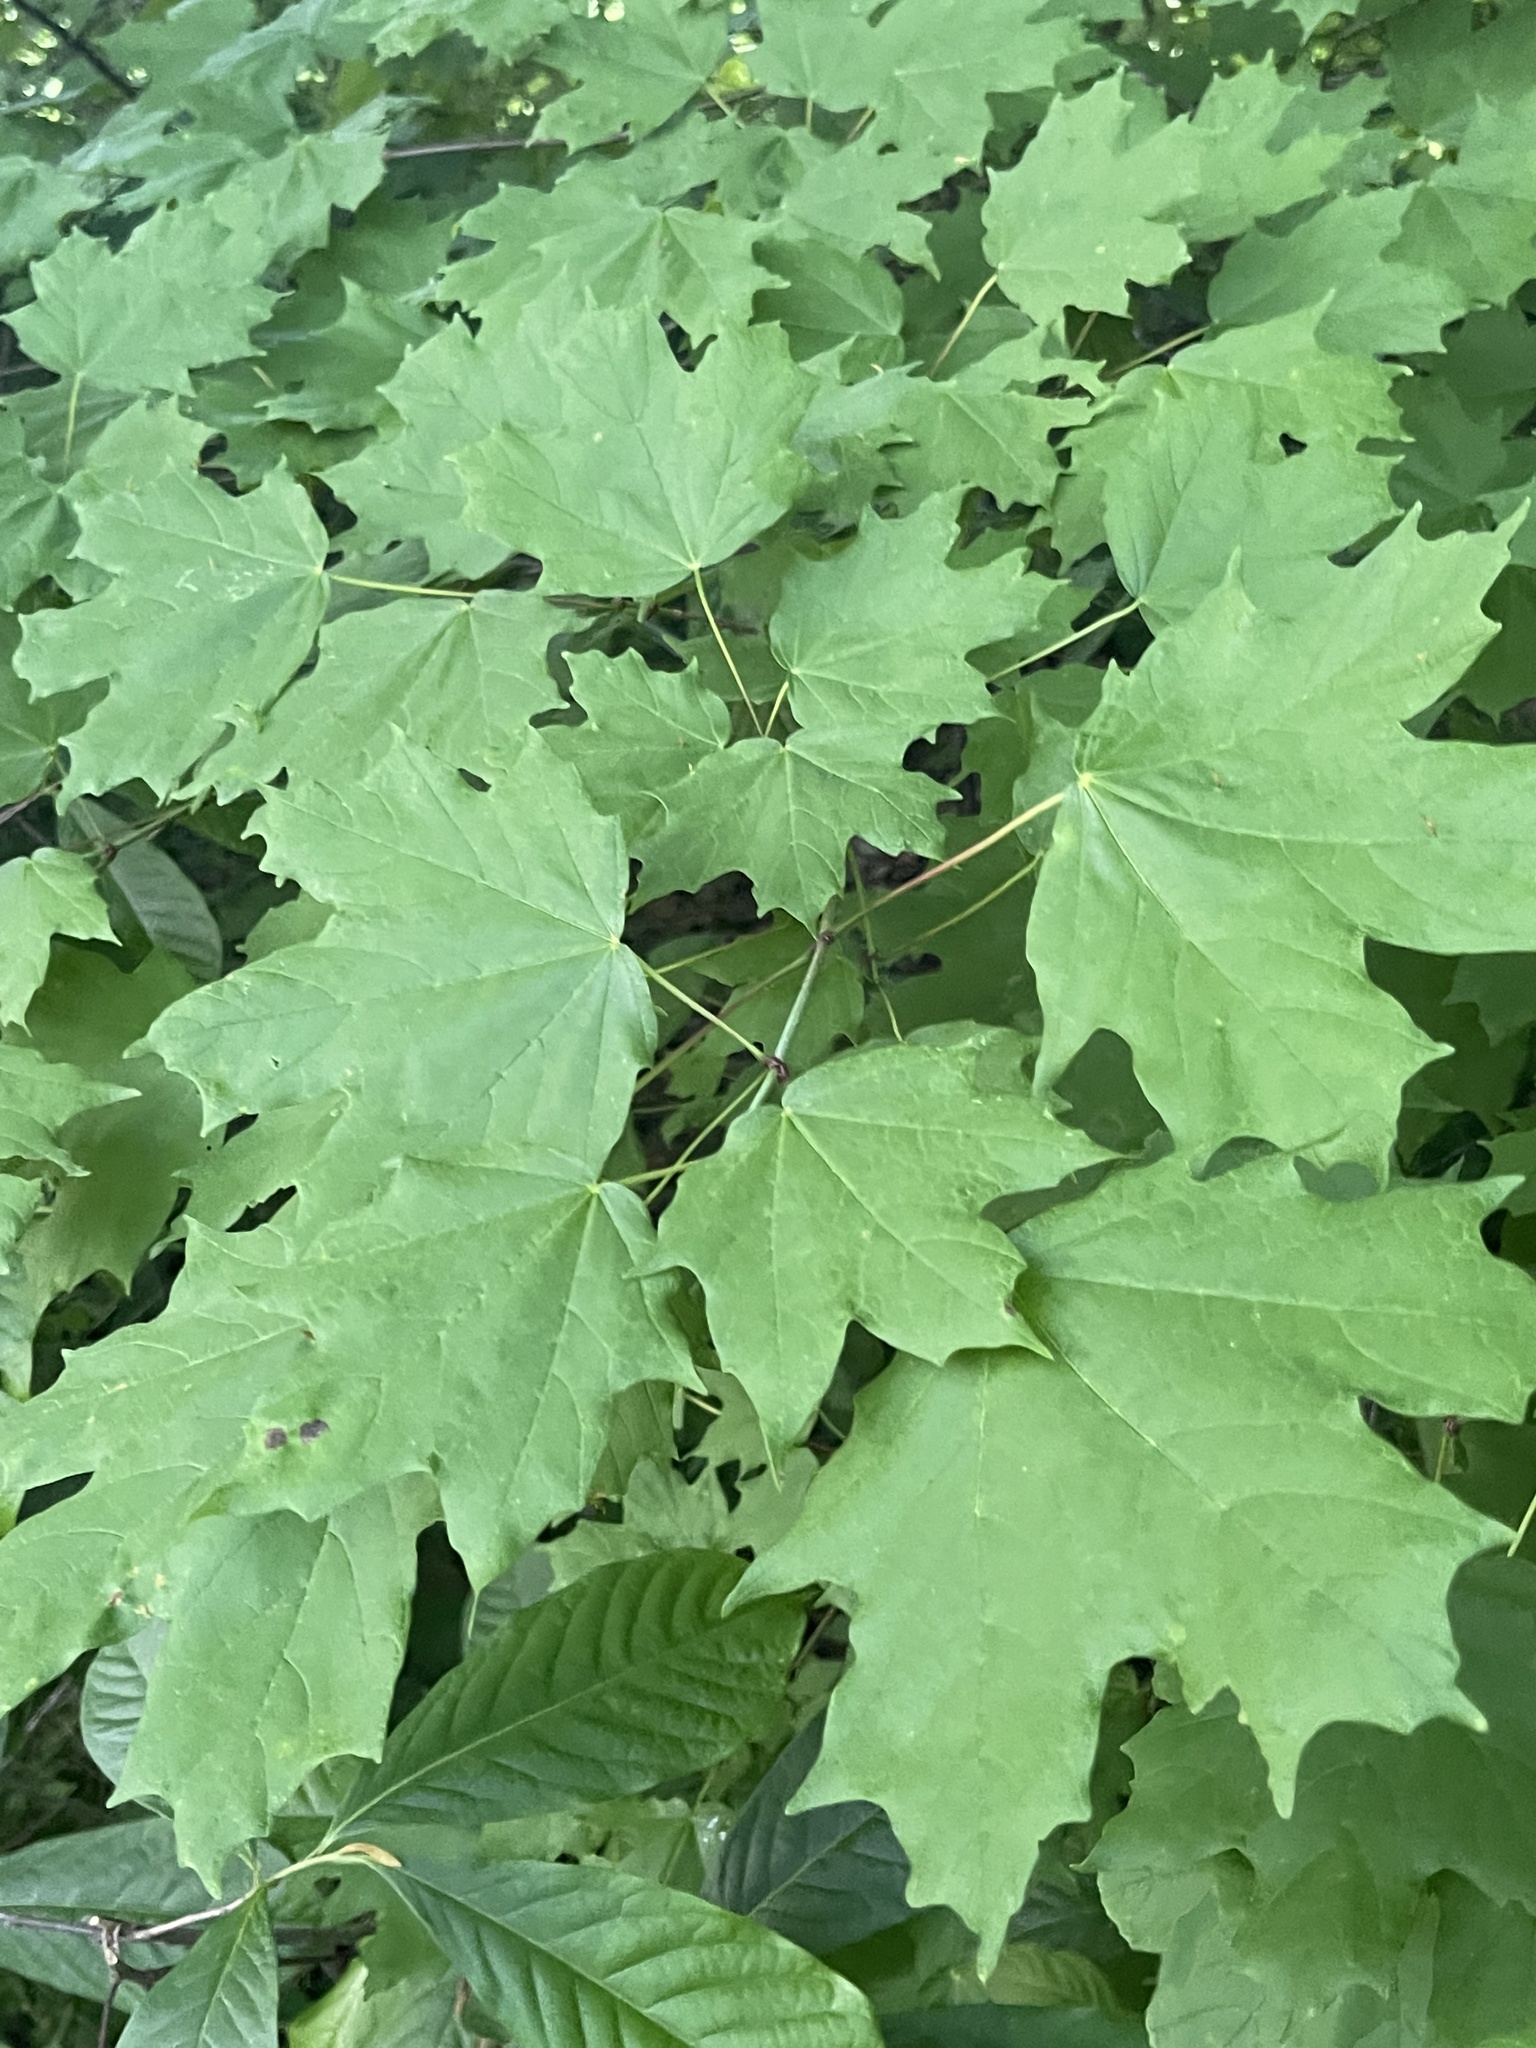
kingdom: Plantae
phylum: Tracheophyta
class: Magnoliopsida
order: Sapindales
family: Sapindaceae
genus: Acer
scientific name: Acer saccharum
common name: Sugar maple
